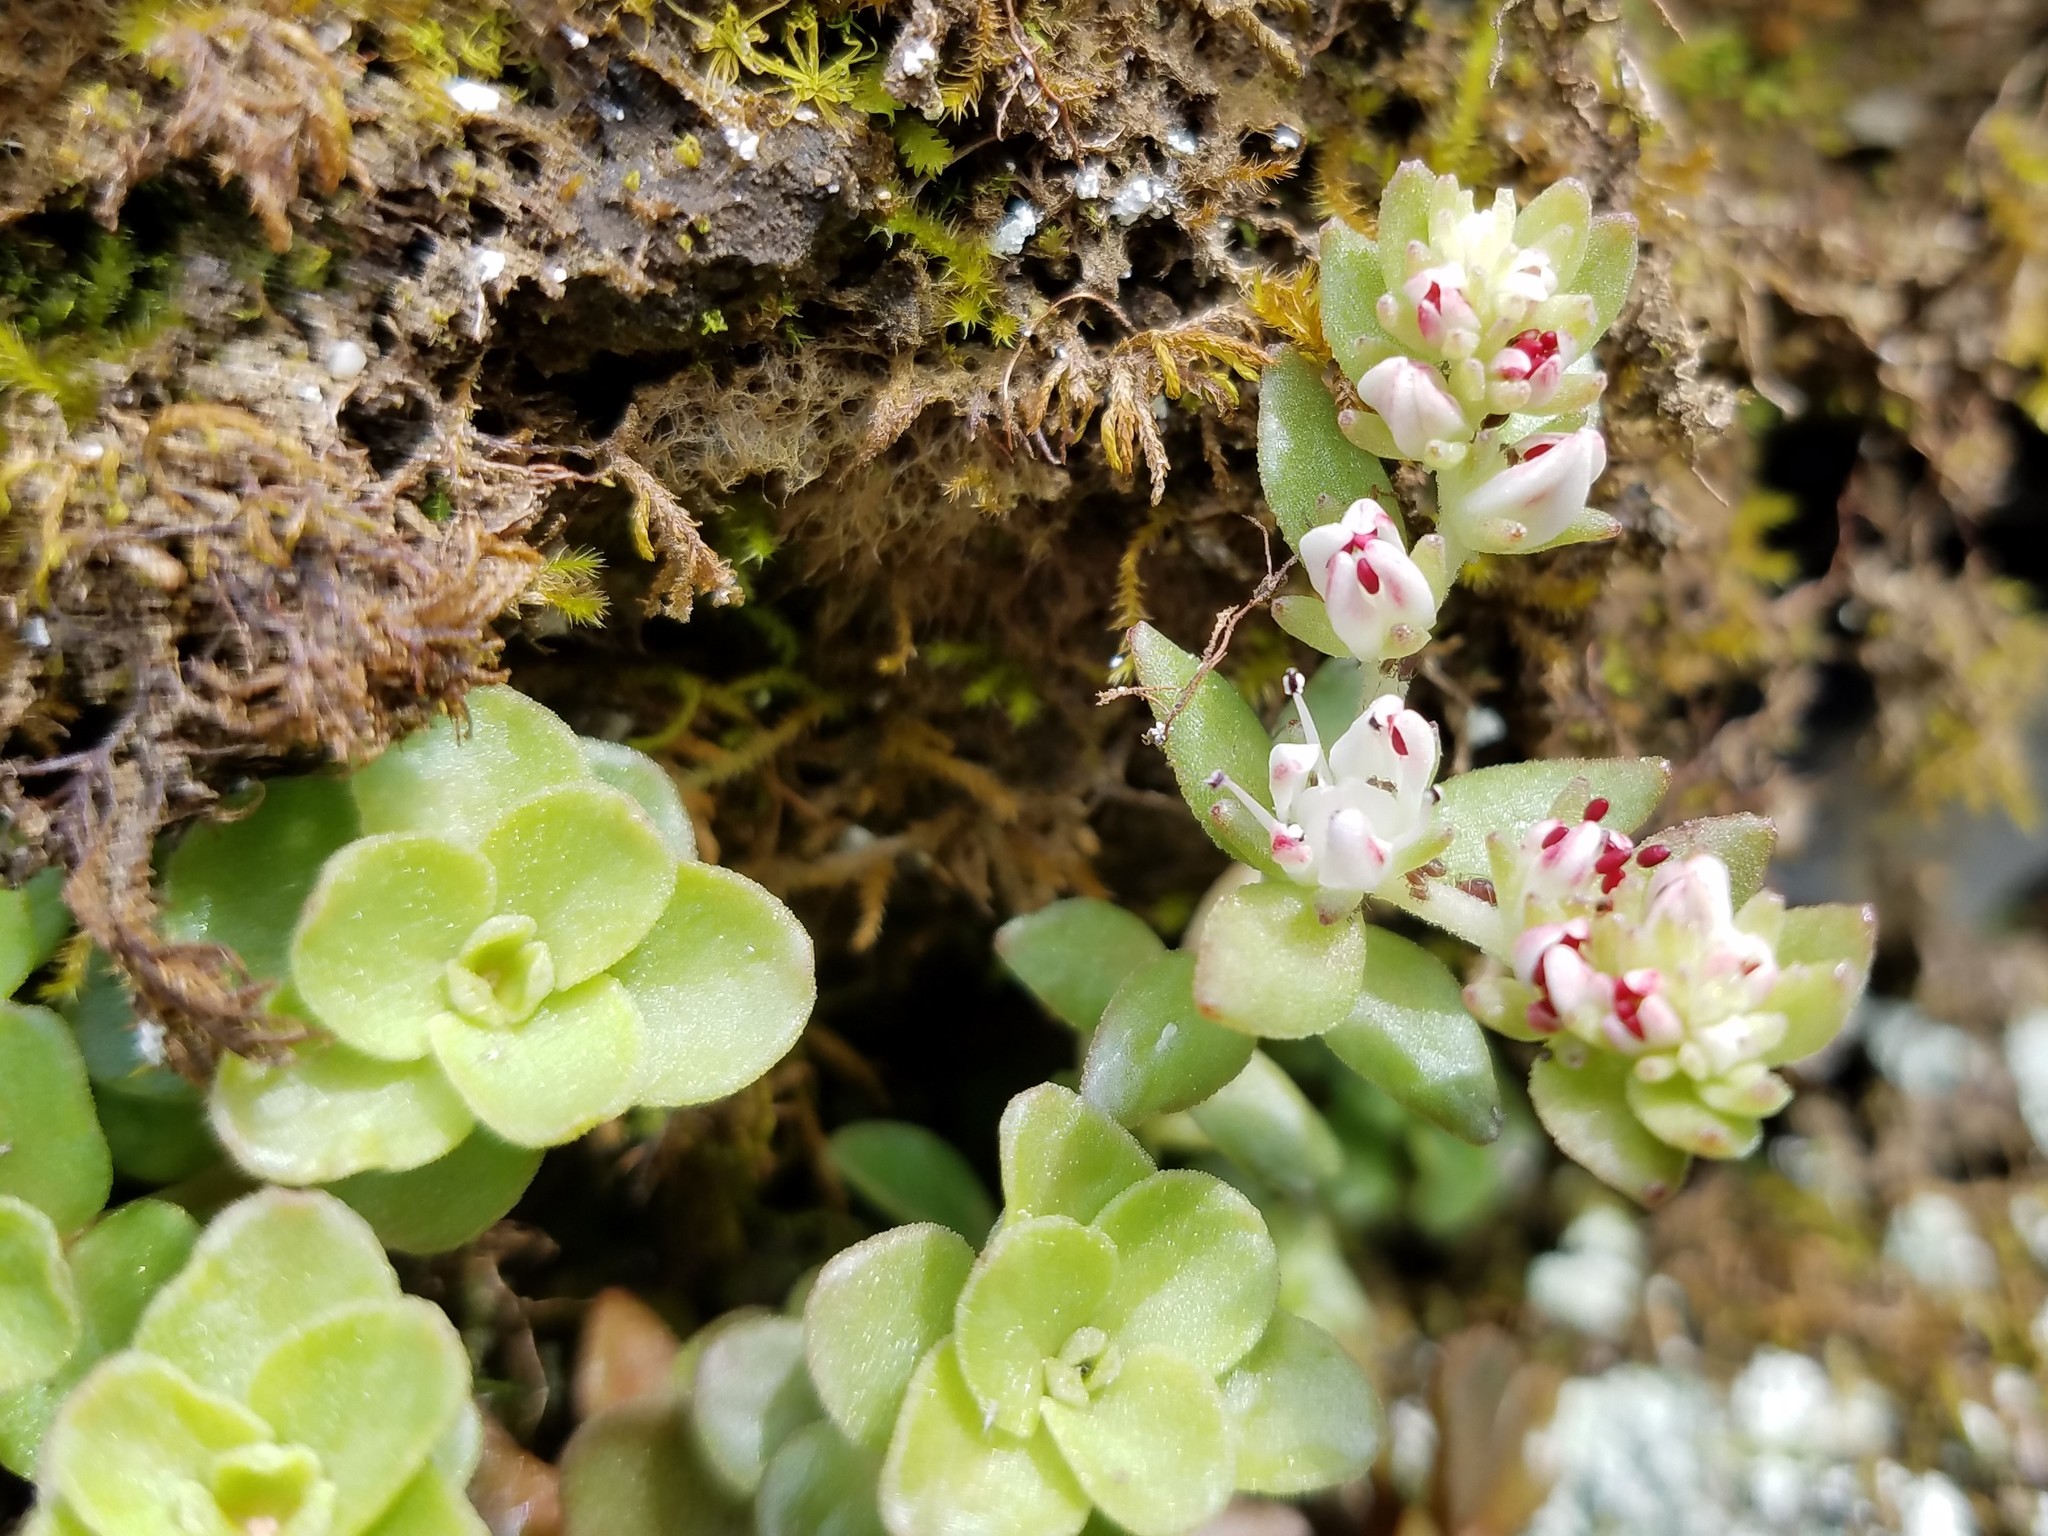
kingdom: Plantae
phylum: Tracheophyta
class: Magnoliopsida
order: Saxifragales
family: Crassulaceae
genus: Sedum
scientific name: Sedum ternatum
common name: Wild stonecrop
